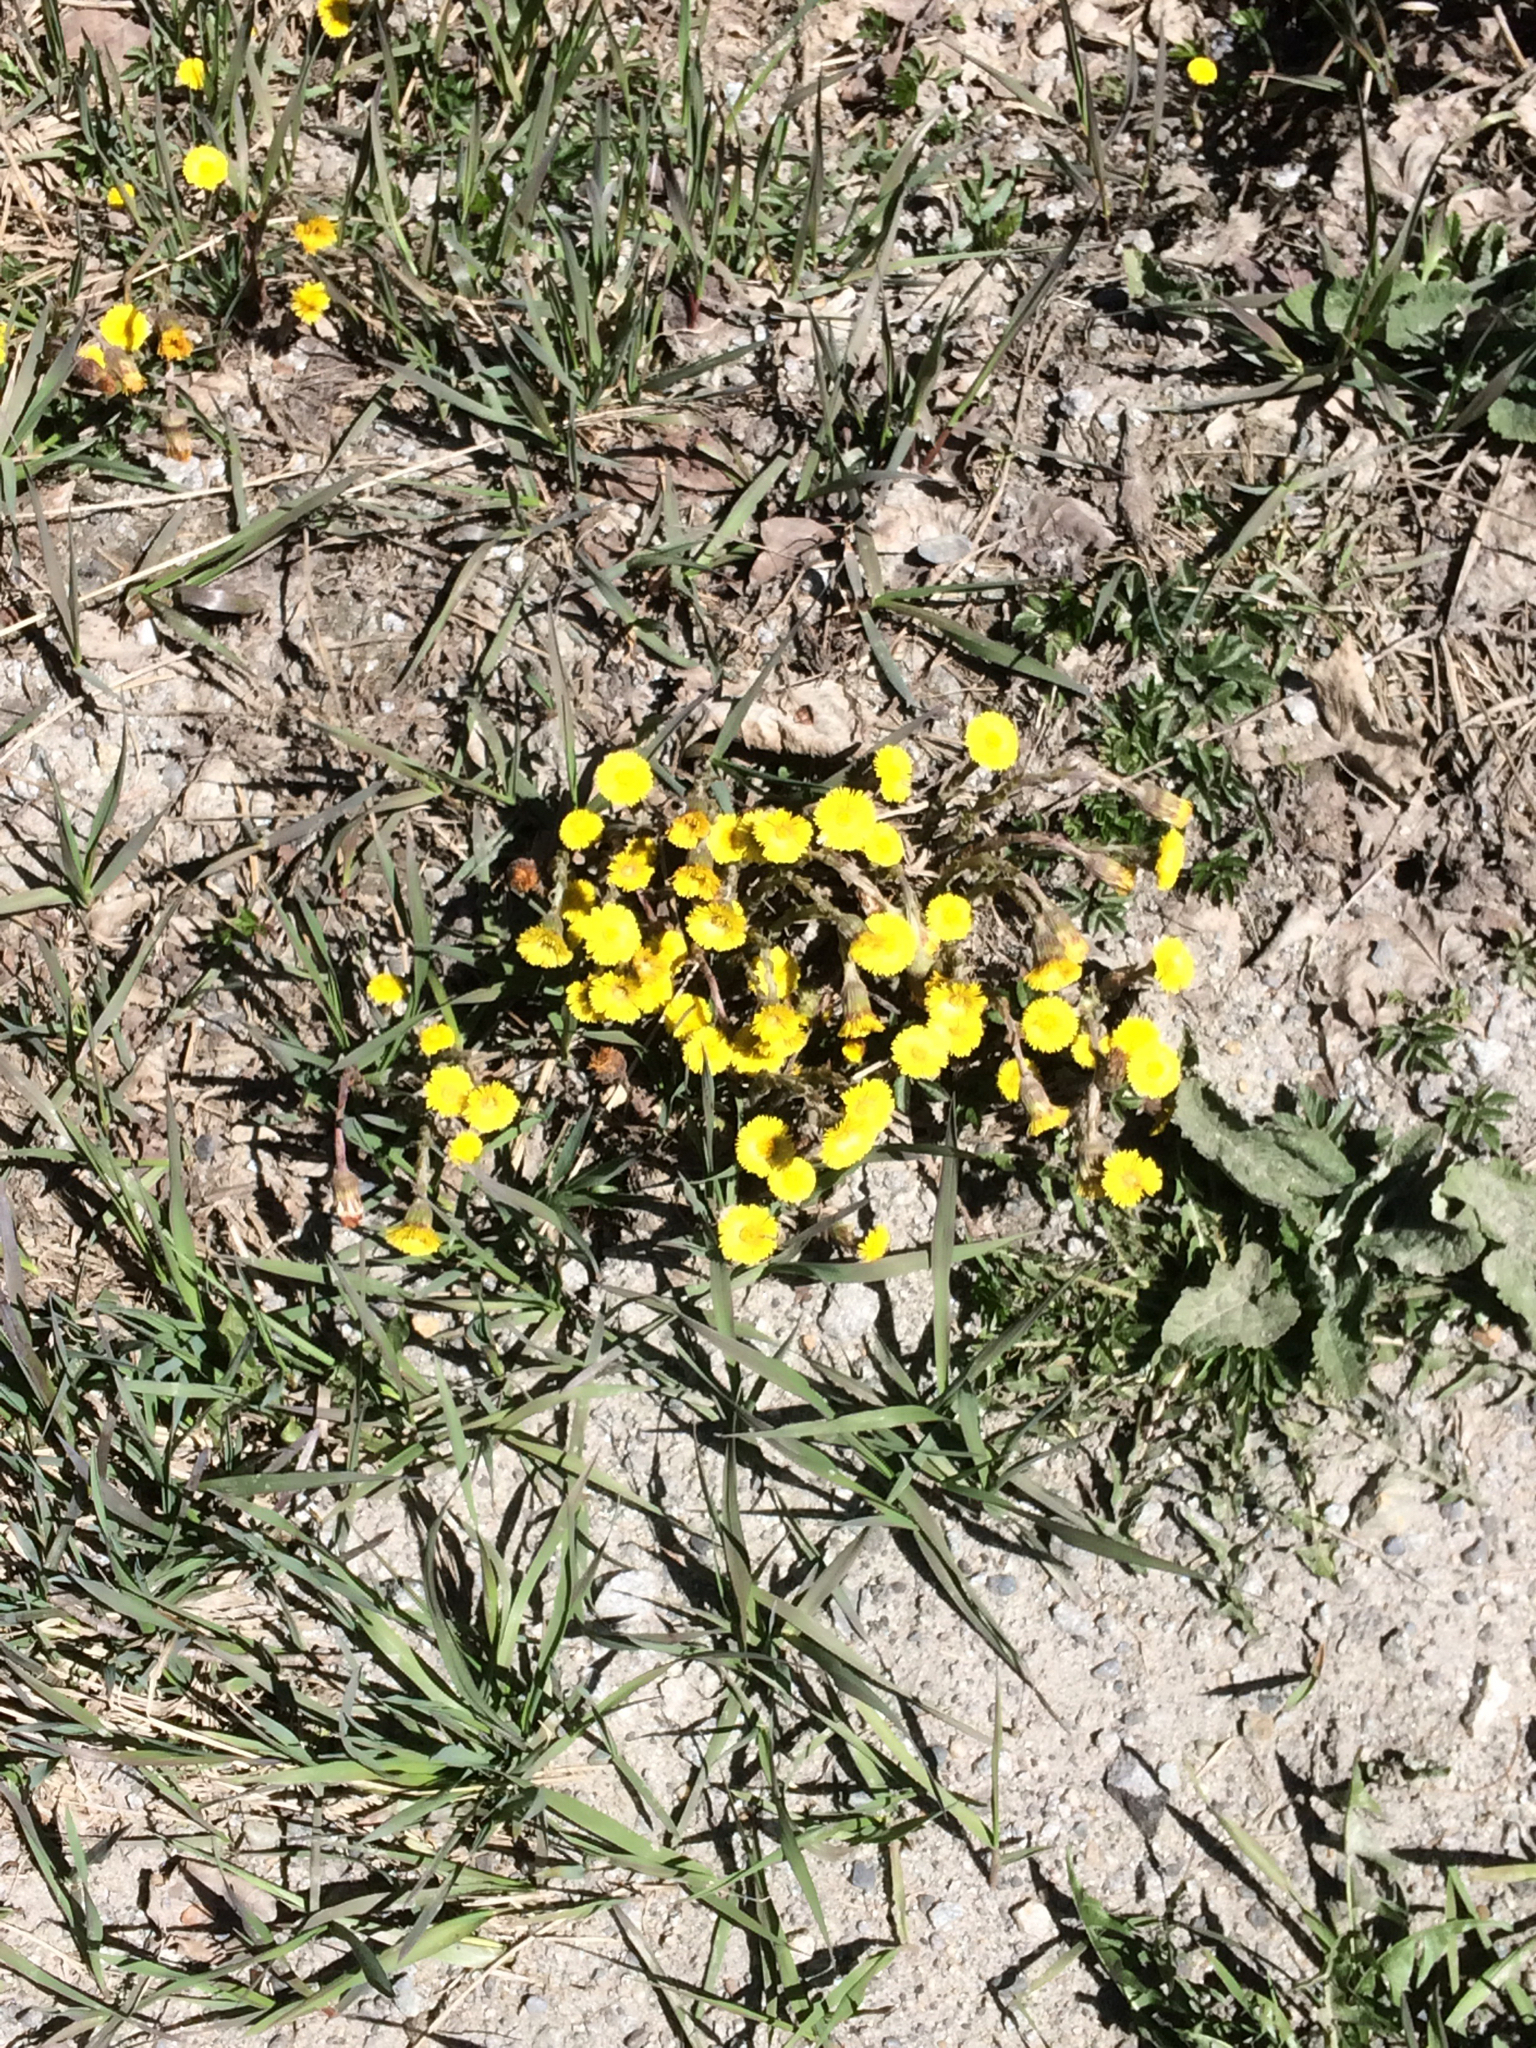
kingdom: Plantae
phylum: Tracheophyta
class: Magnoliopsida
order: Asterales
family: Asteraceae
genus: Tussilago
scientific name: Tussilago farfara
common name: Coltsfoot
